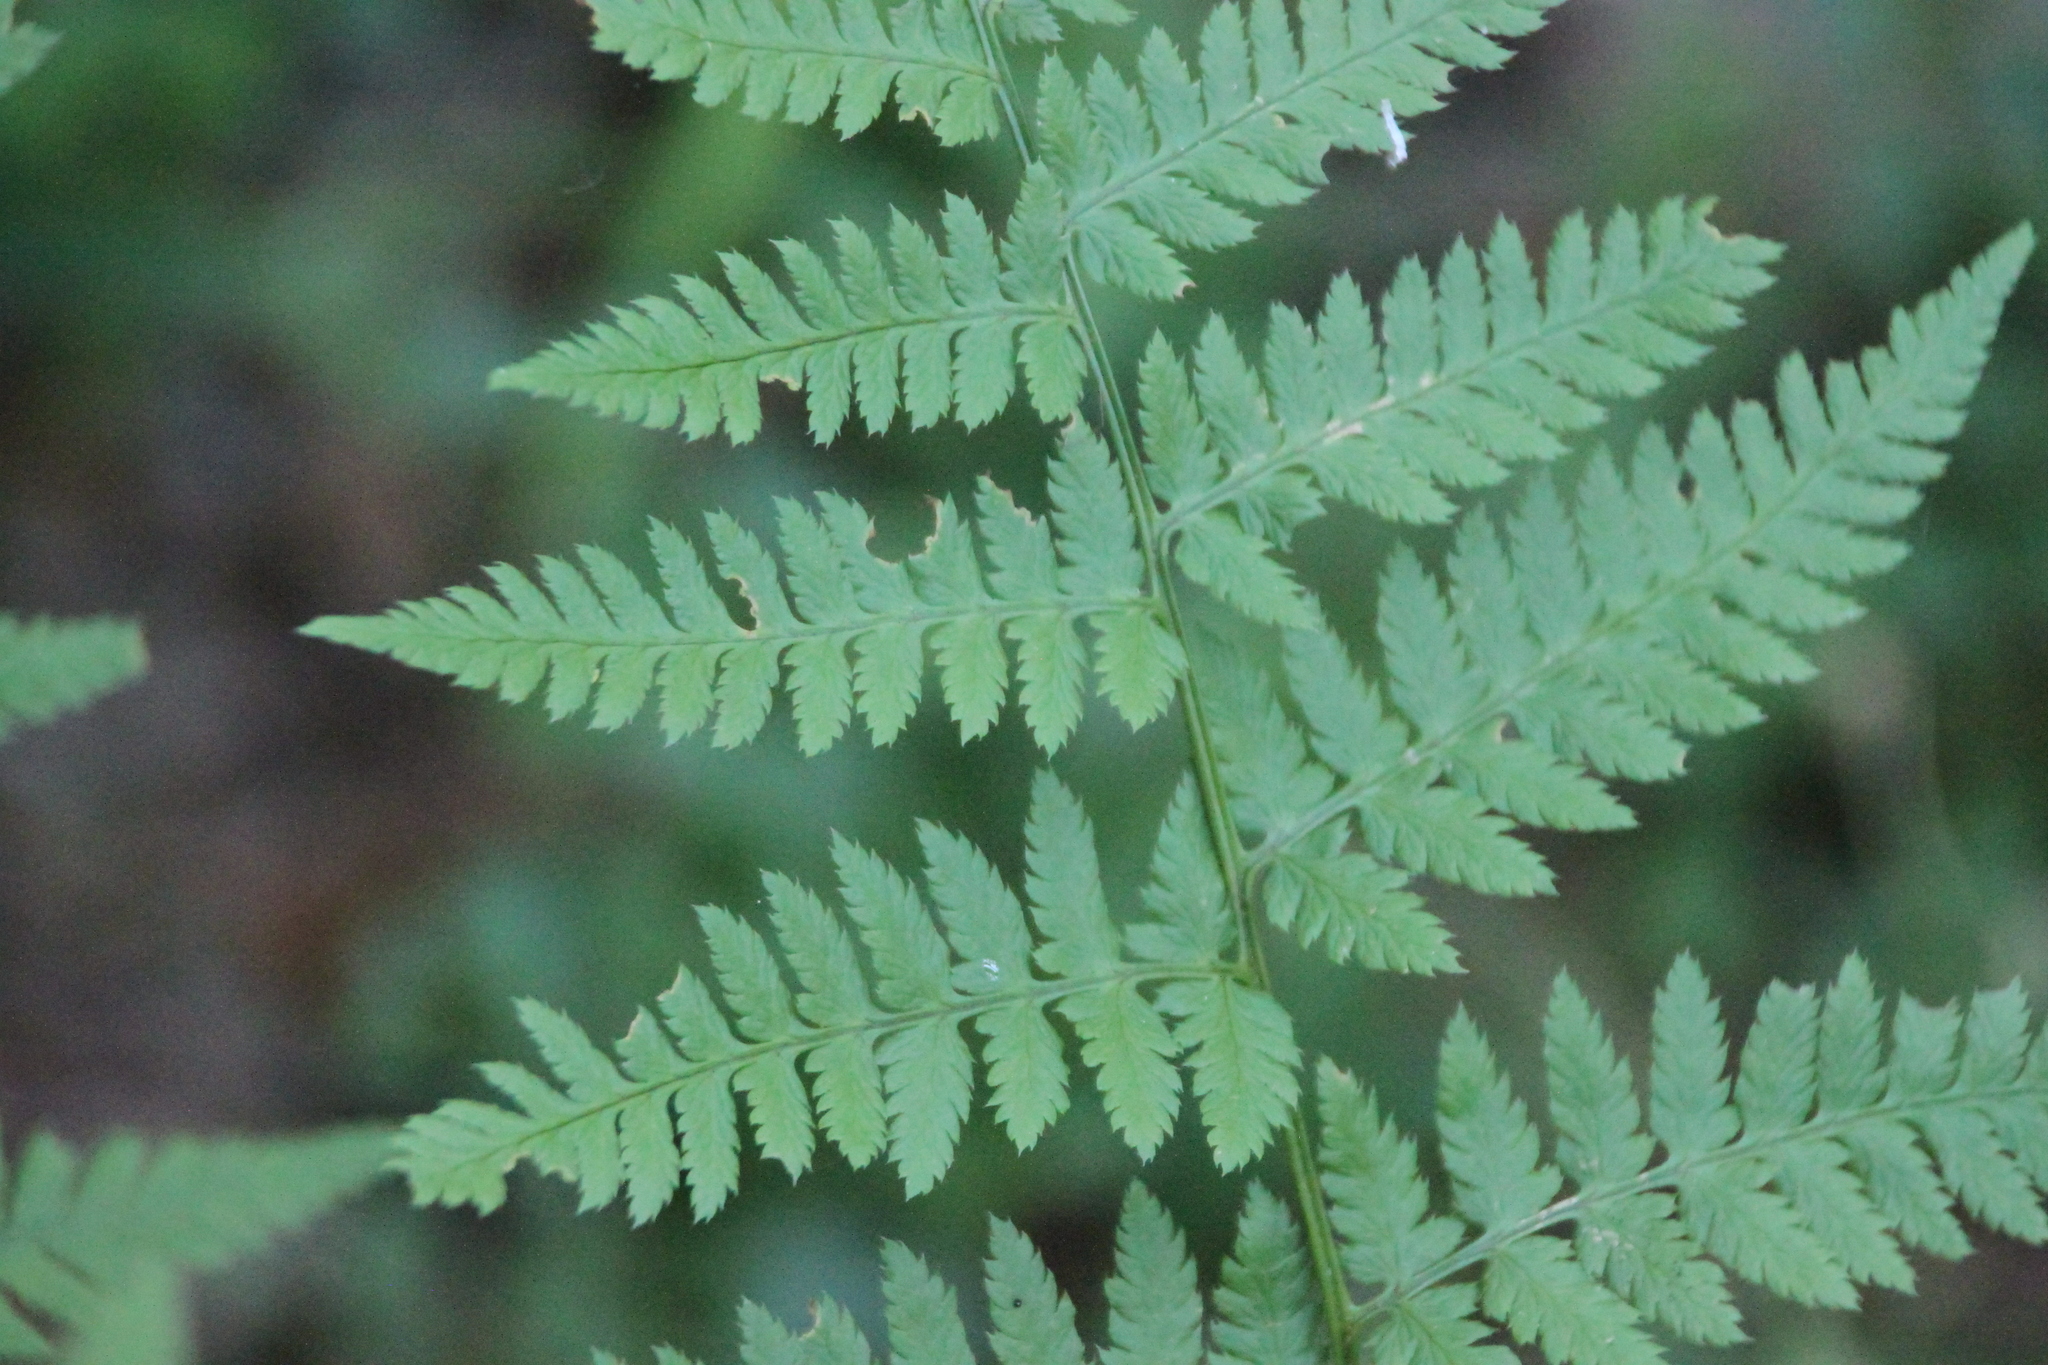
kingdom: Plantae
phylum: Tracheophyta
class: Polypodiopsida
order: Polypodiales
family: Dryopteridaceae
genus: Dryopteris
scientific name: Dryopteris carthusiana
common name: Narrow buckler-fern
